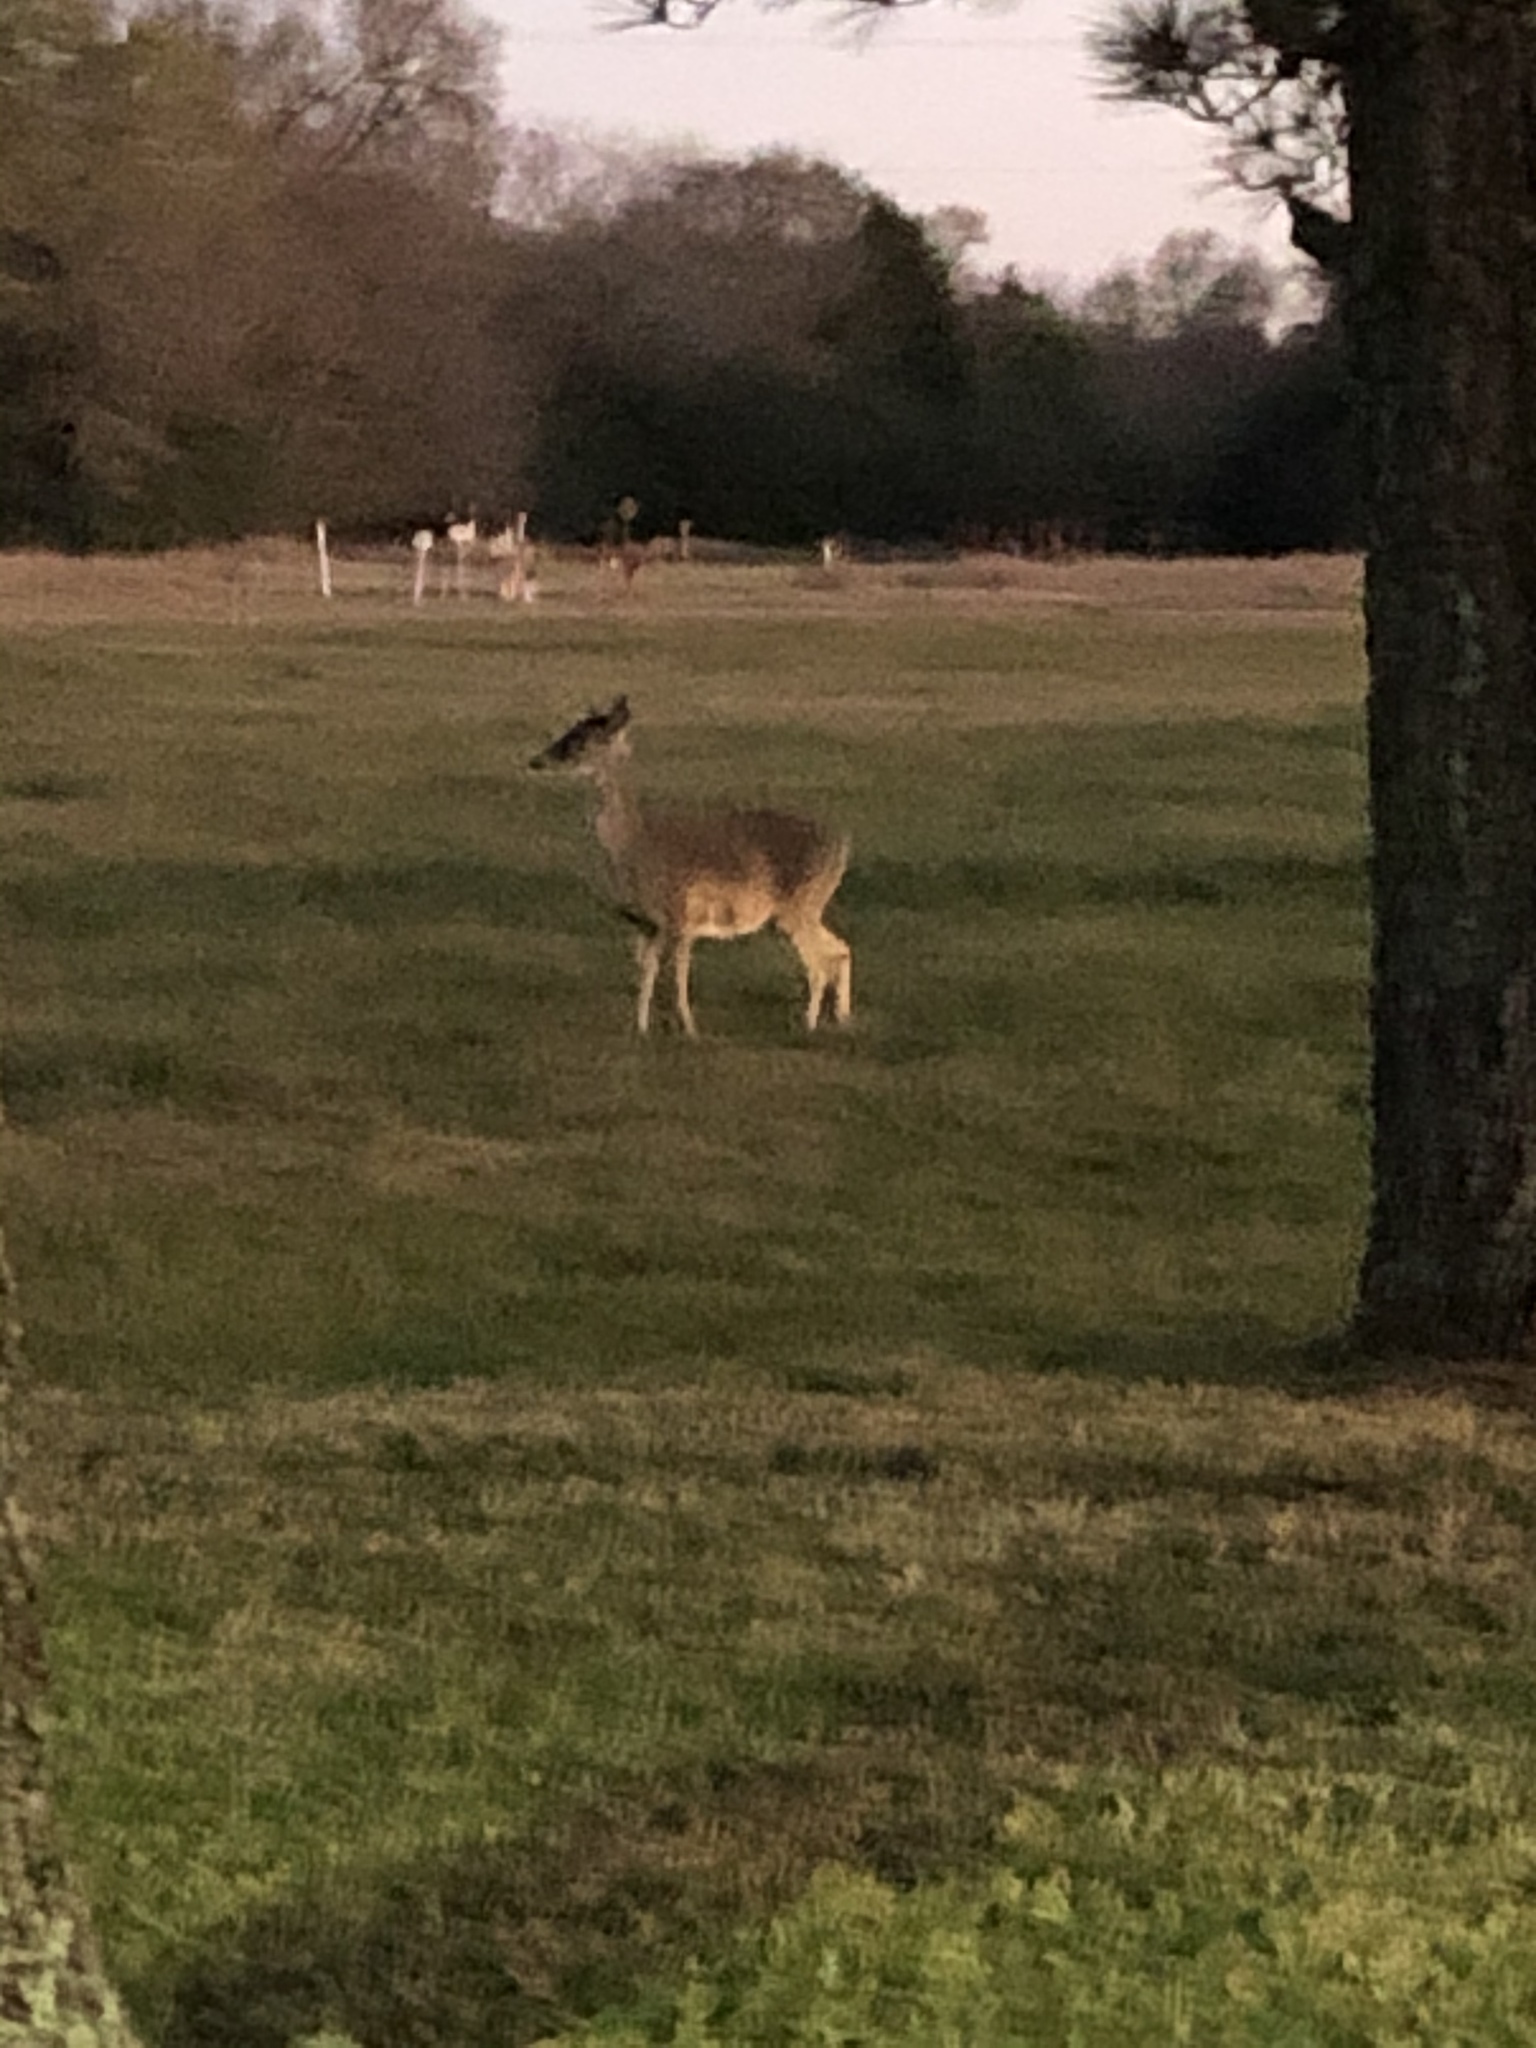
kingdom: Animalia
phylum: Chordata
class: Mammalia
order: Artiodactyla
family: Cervidae
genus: Odocoileus
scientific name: Odocoileus virginianus
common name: White-tailed deer
